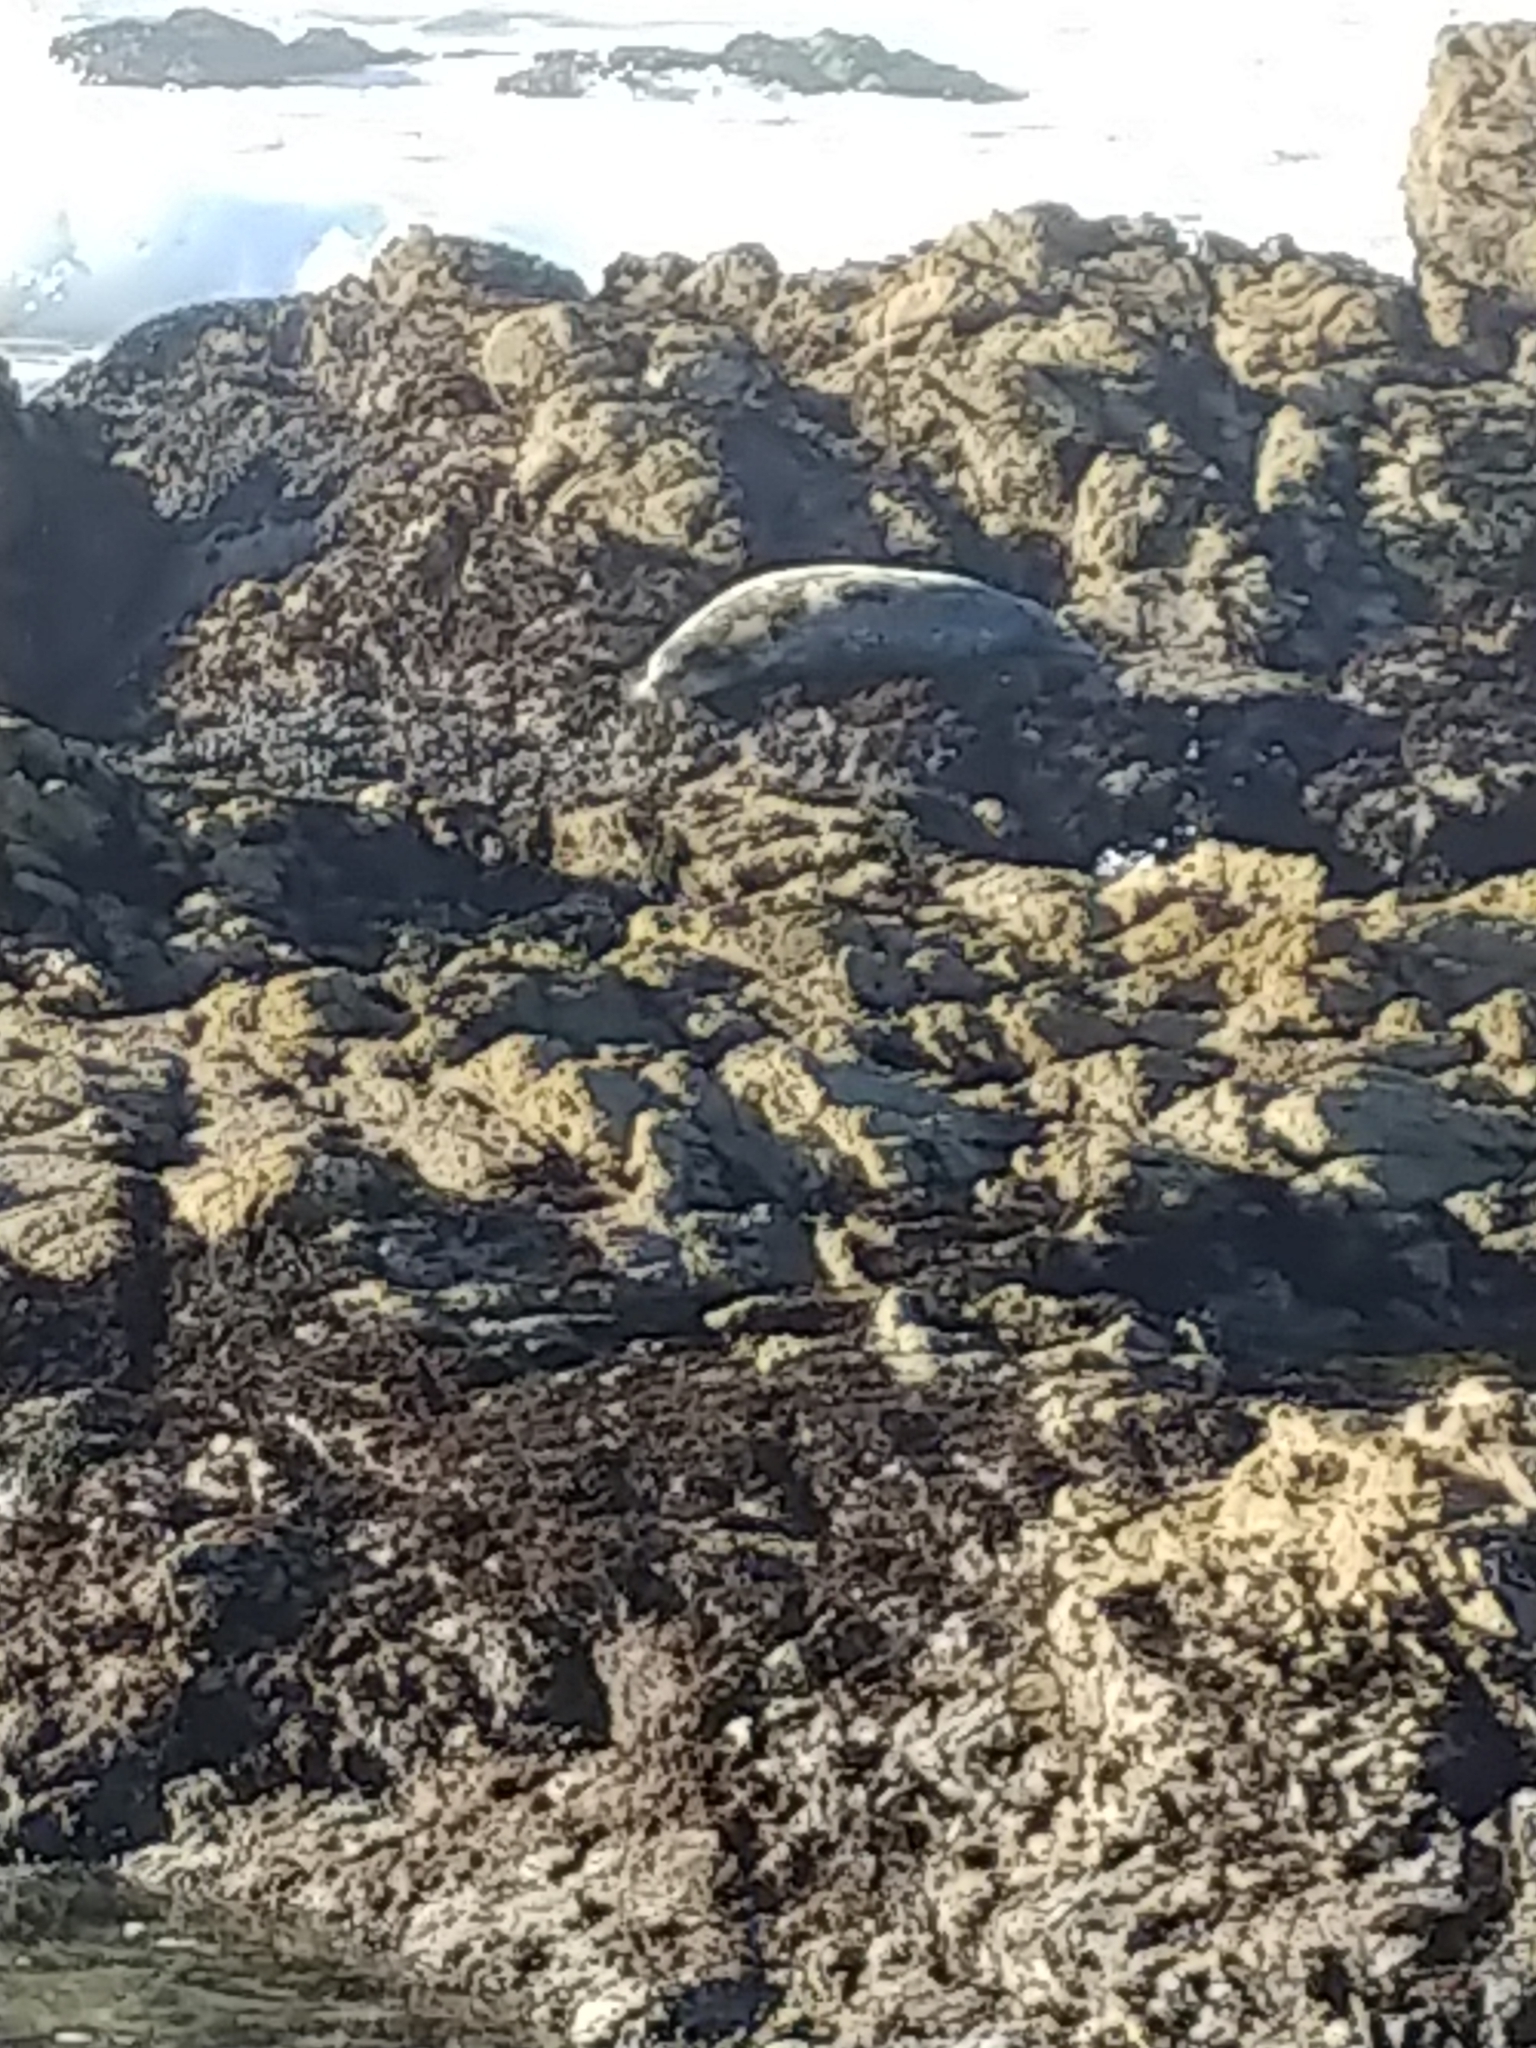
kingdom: Animalia
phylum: Chordata
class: Mammalia
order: Carnivora
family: Phocidae
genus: Phoca
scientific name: Phoca vitulina
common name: Harbor seal
